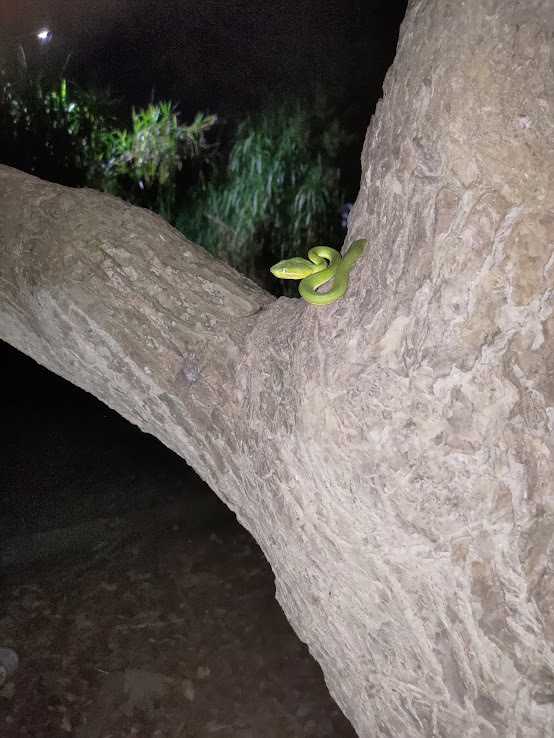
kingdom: Animalia
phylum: Chordata
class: Squamata
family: Viperidae
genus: Trimeresurus
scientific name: Trimeresurus stejnegeri
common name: Chen’s bamboo pit viper
